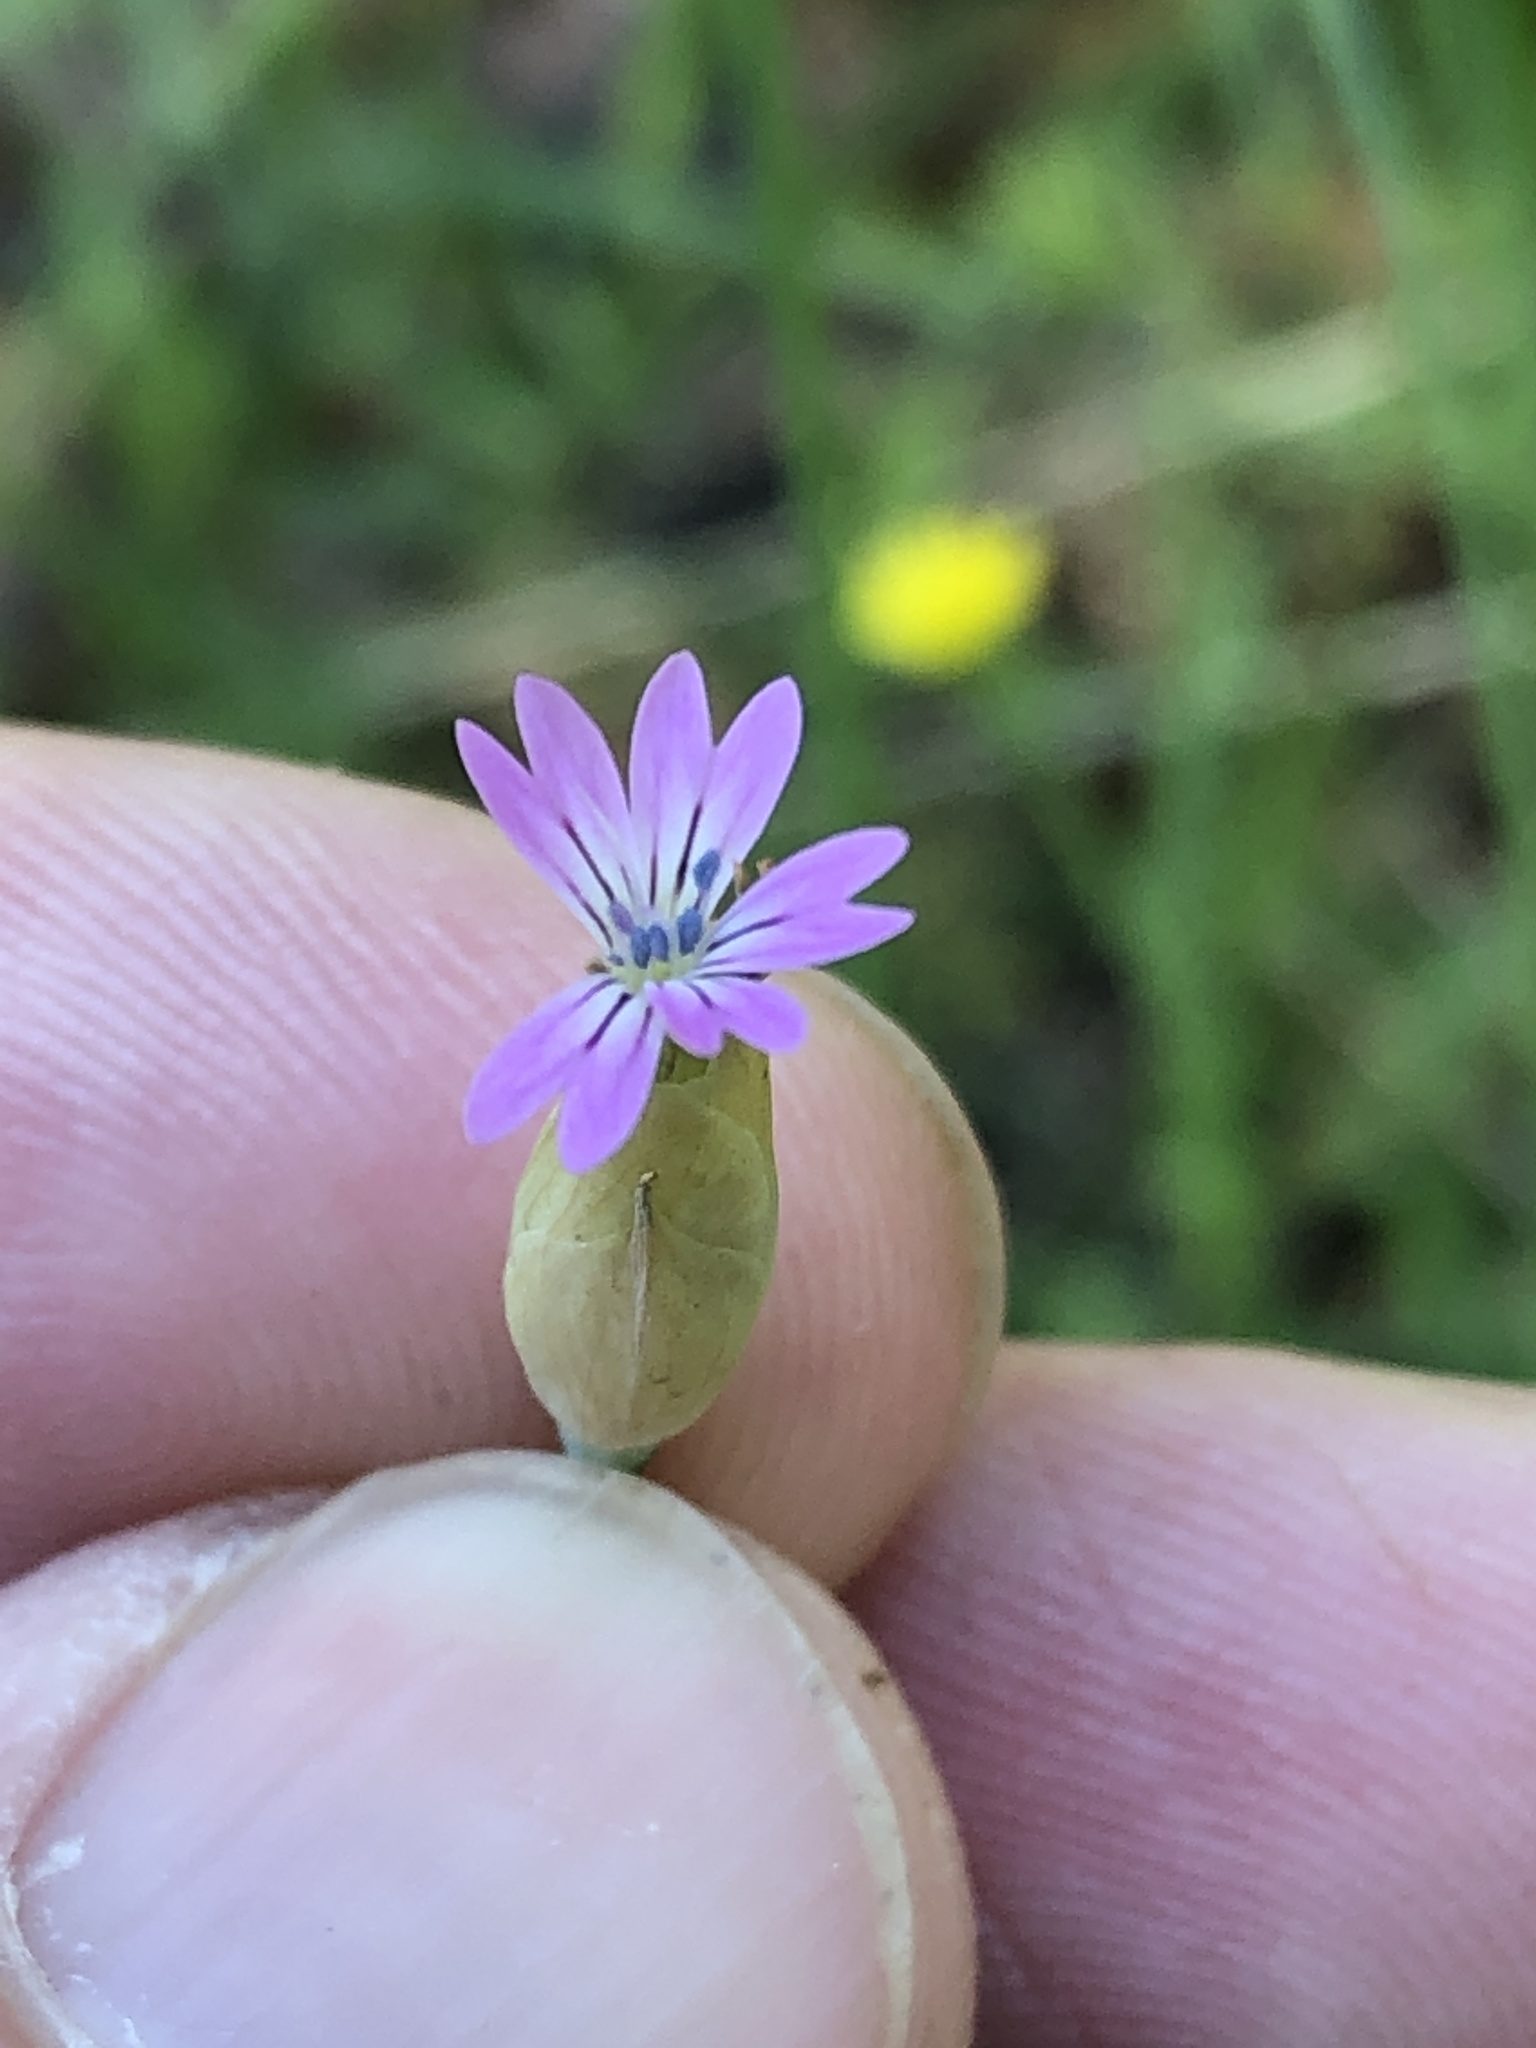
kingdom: Plantae
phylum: Tracheophyta
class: Magnoliopsida
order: Caryophyllales
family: Caryophyllaceae
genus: Petrorhagia
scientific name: Petrorhagia dubia
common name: Hairypink
